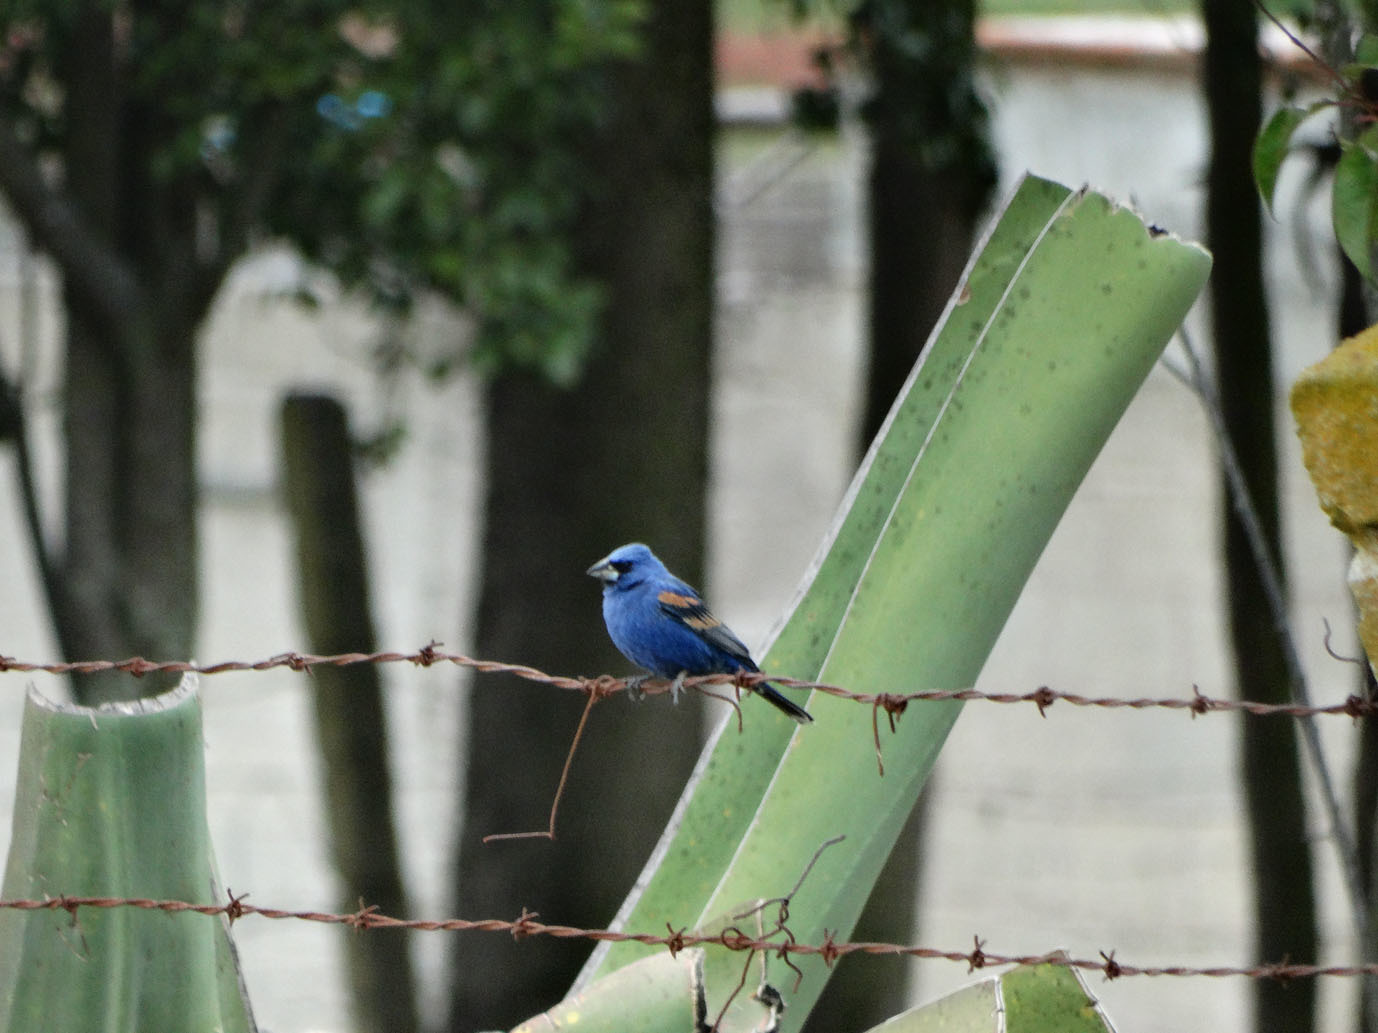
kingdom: Animalia
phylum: Chordata
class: Aves
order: Passeriformes
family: Cardinalidae
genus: Passerina
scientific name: Passerina caerulea
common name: Blue grosbeak
